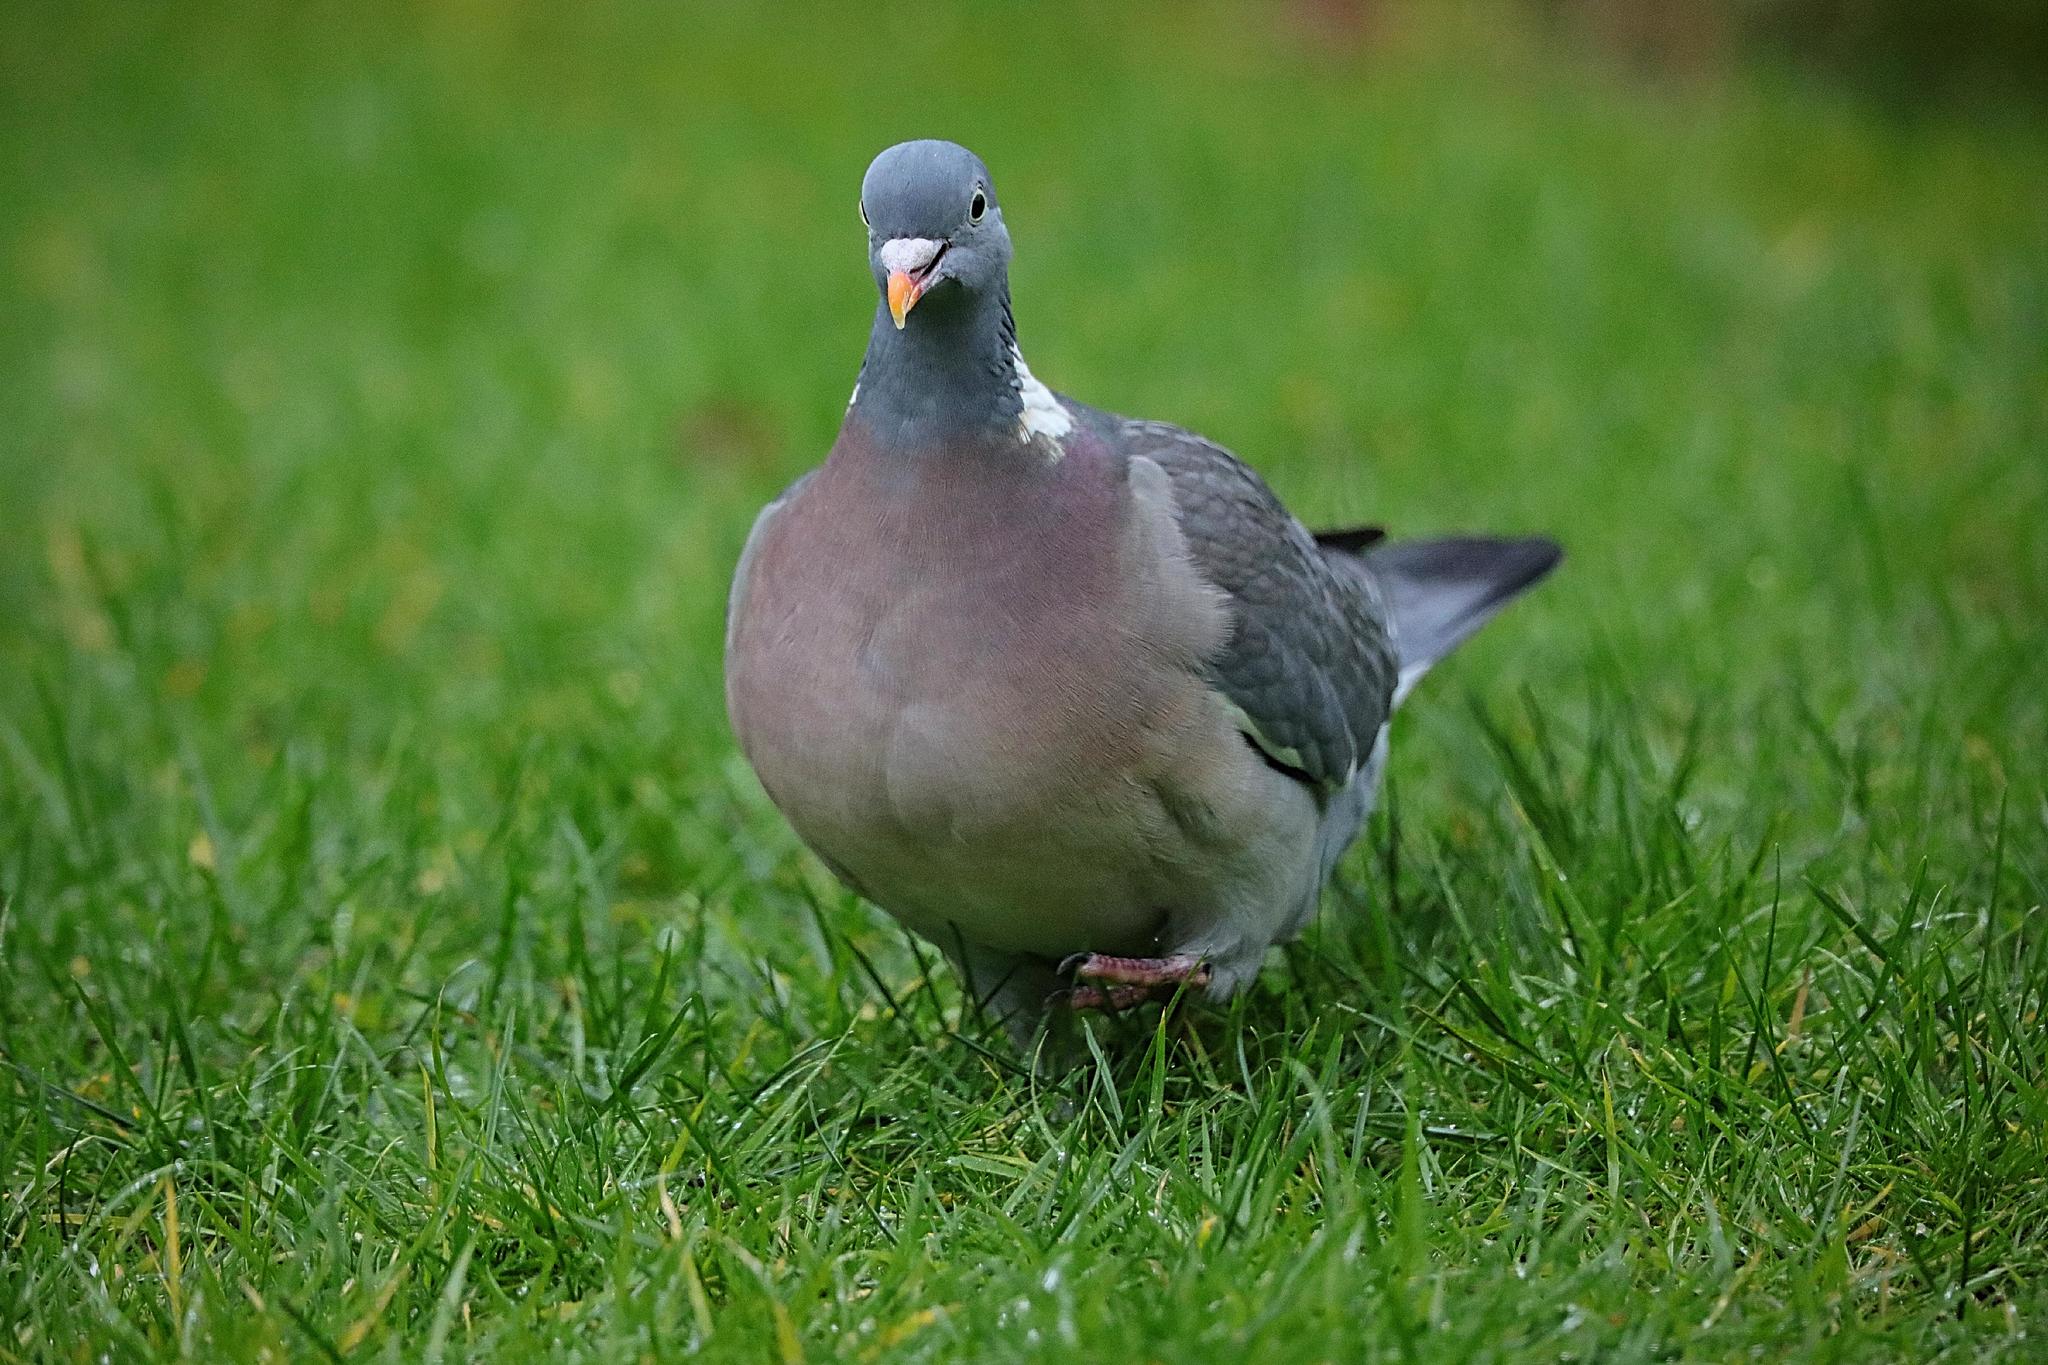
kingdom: Animalia
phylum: Chordata
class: Aves
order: Columbiformes
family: Columbidae
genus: Columba
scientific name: Columba palumbus
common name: Common wood pigeon
